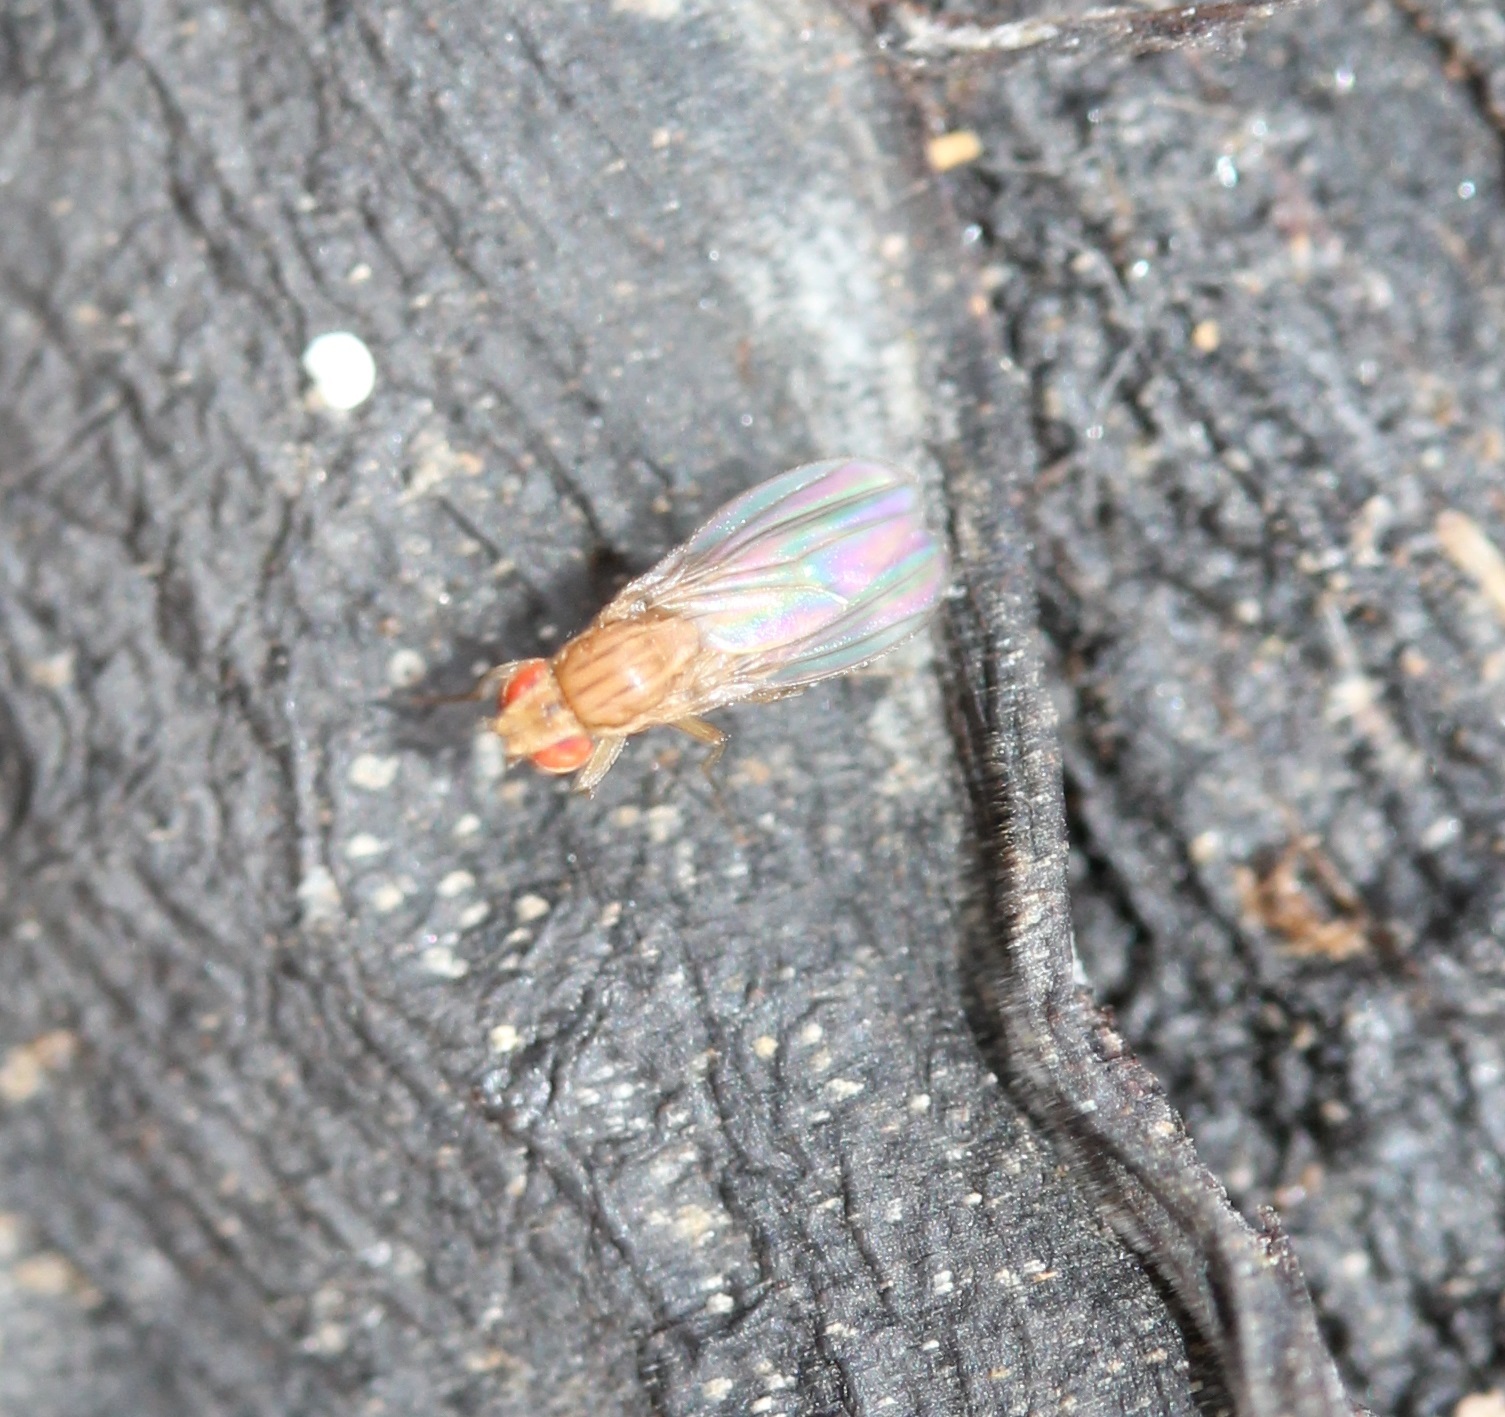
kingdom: Animalia
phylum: Arthropoda
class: Insecta
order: Diptera
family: Drosophilidae
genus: Drosophila
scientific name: Drosophila busckii
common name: Pomace fly
